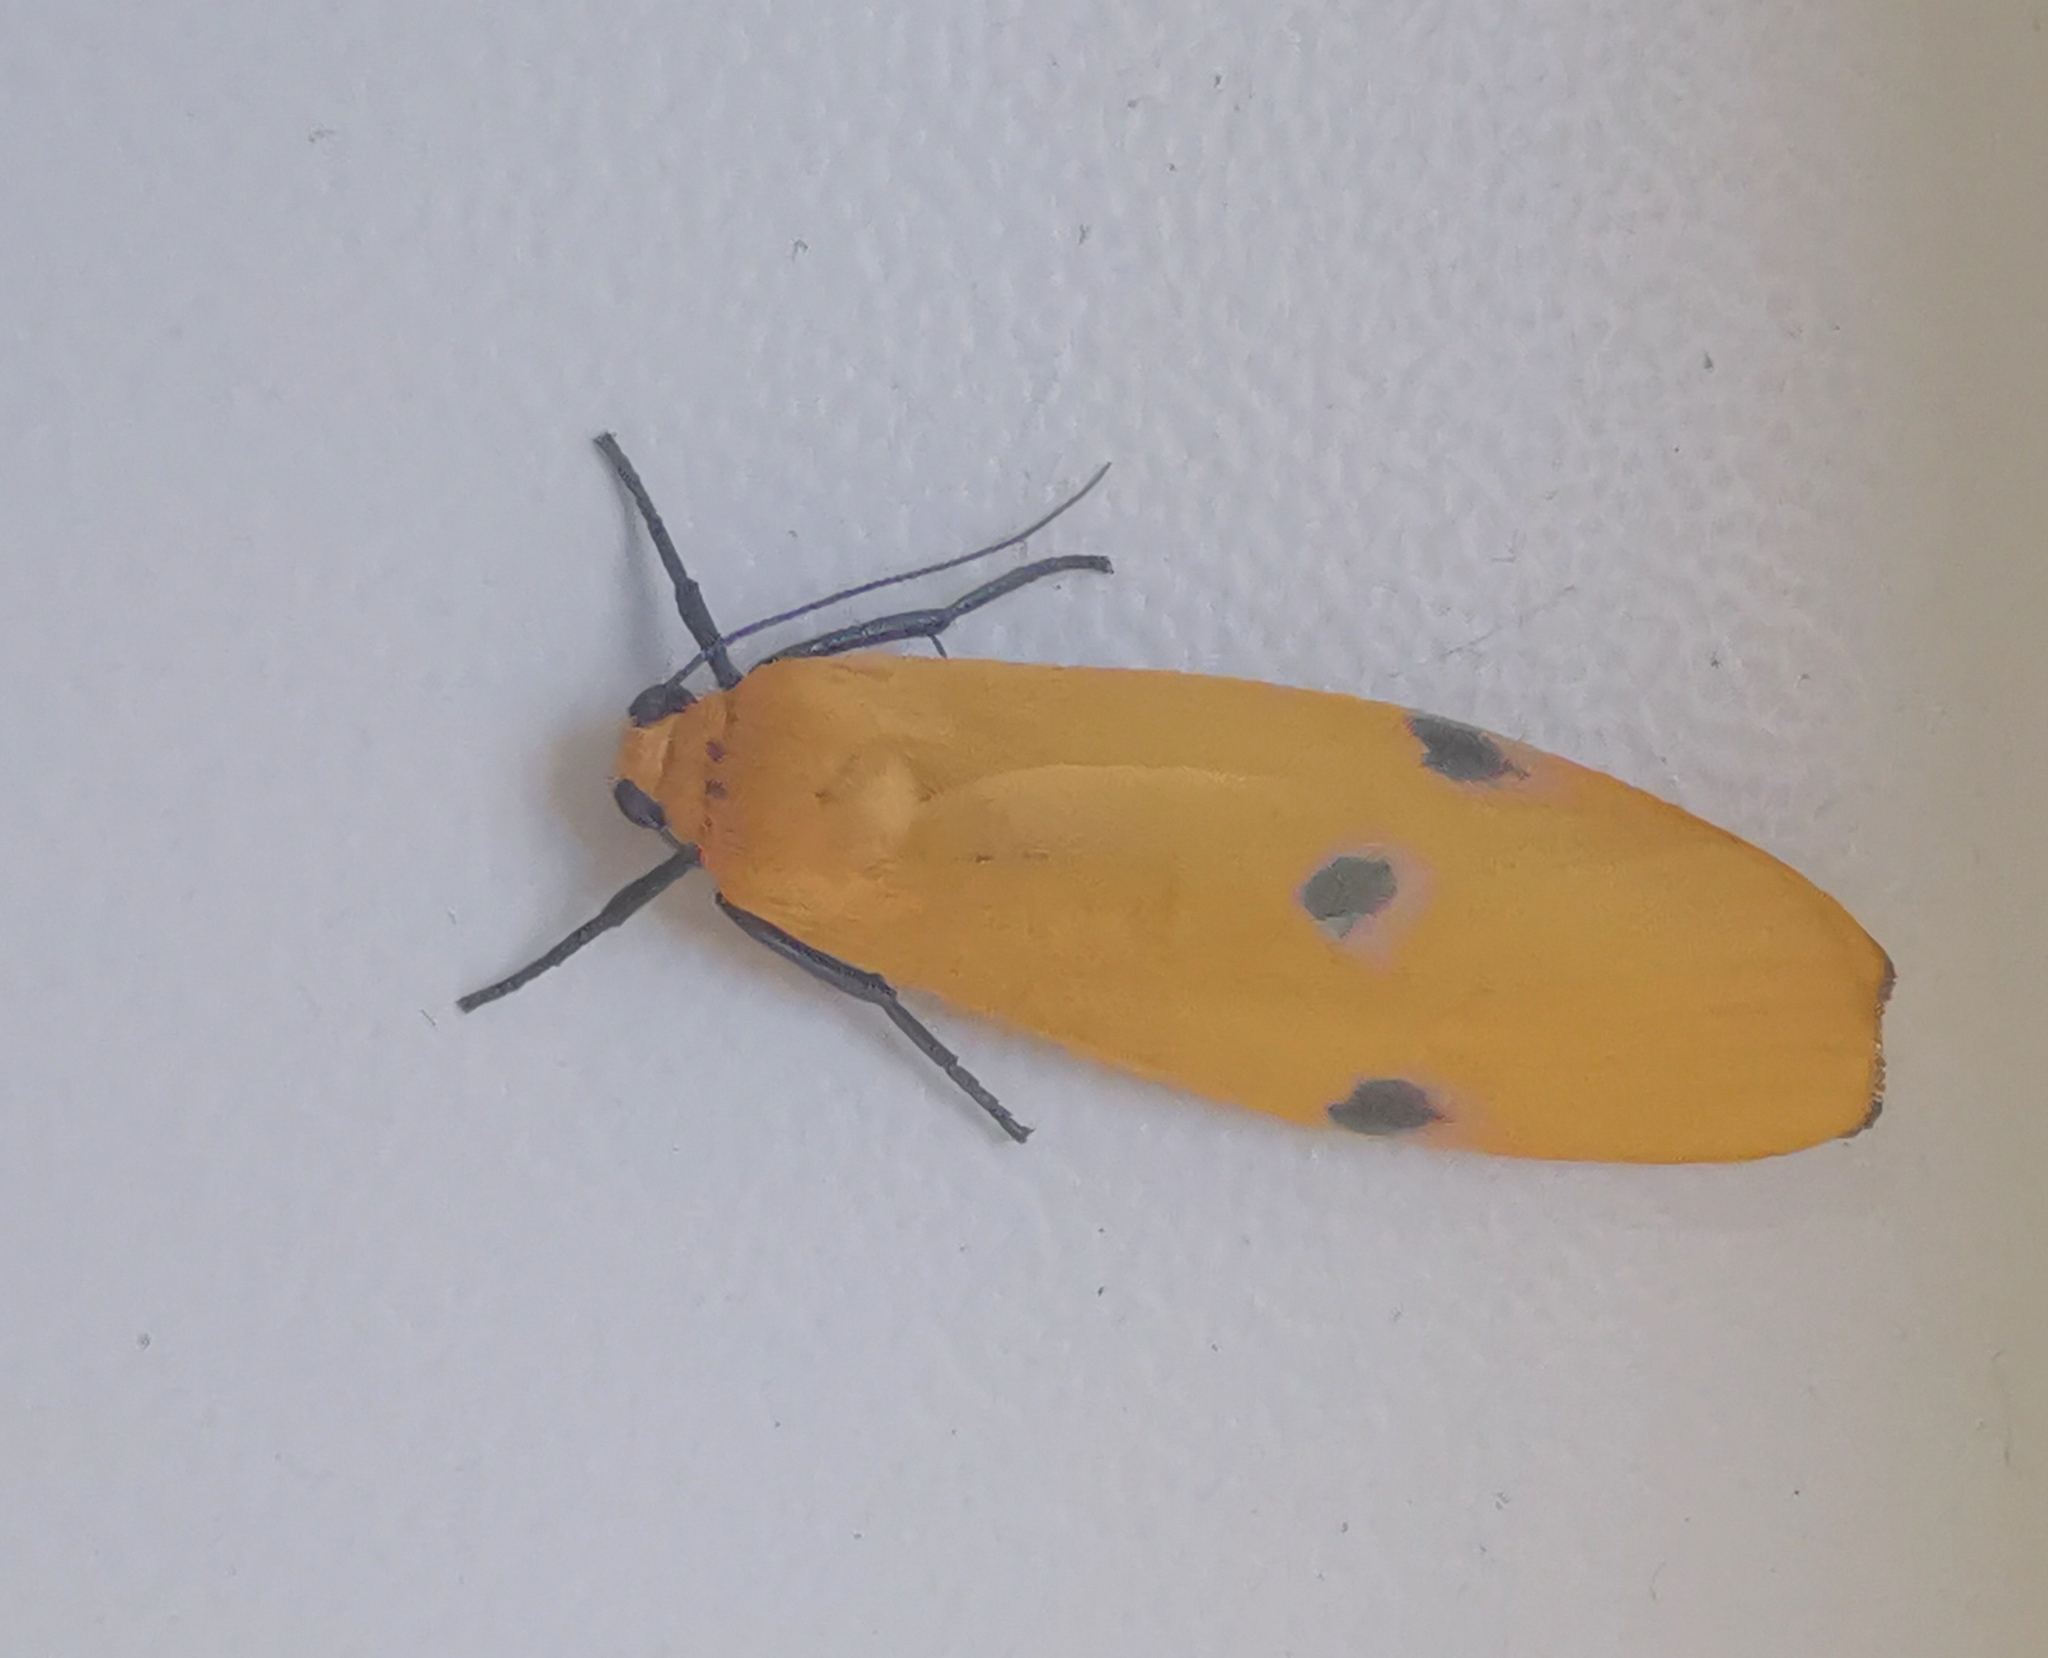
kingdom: Animalia
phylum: Arthropoda
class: Insecta
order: Lepidoptera
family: Erebidae
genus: Lithosia
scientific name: Lithosia quadra
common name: Four-spotted footman
